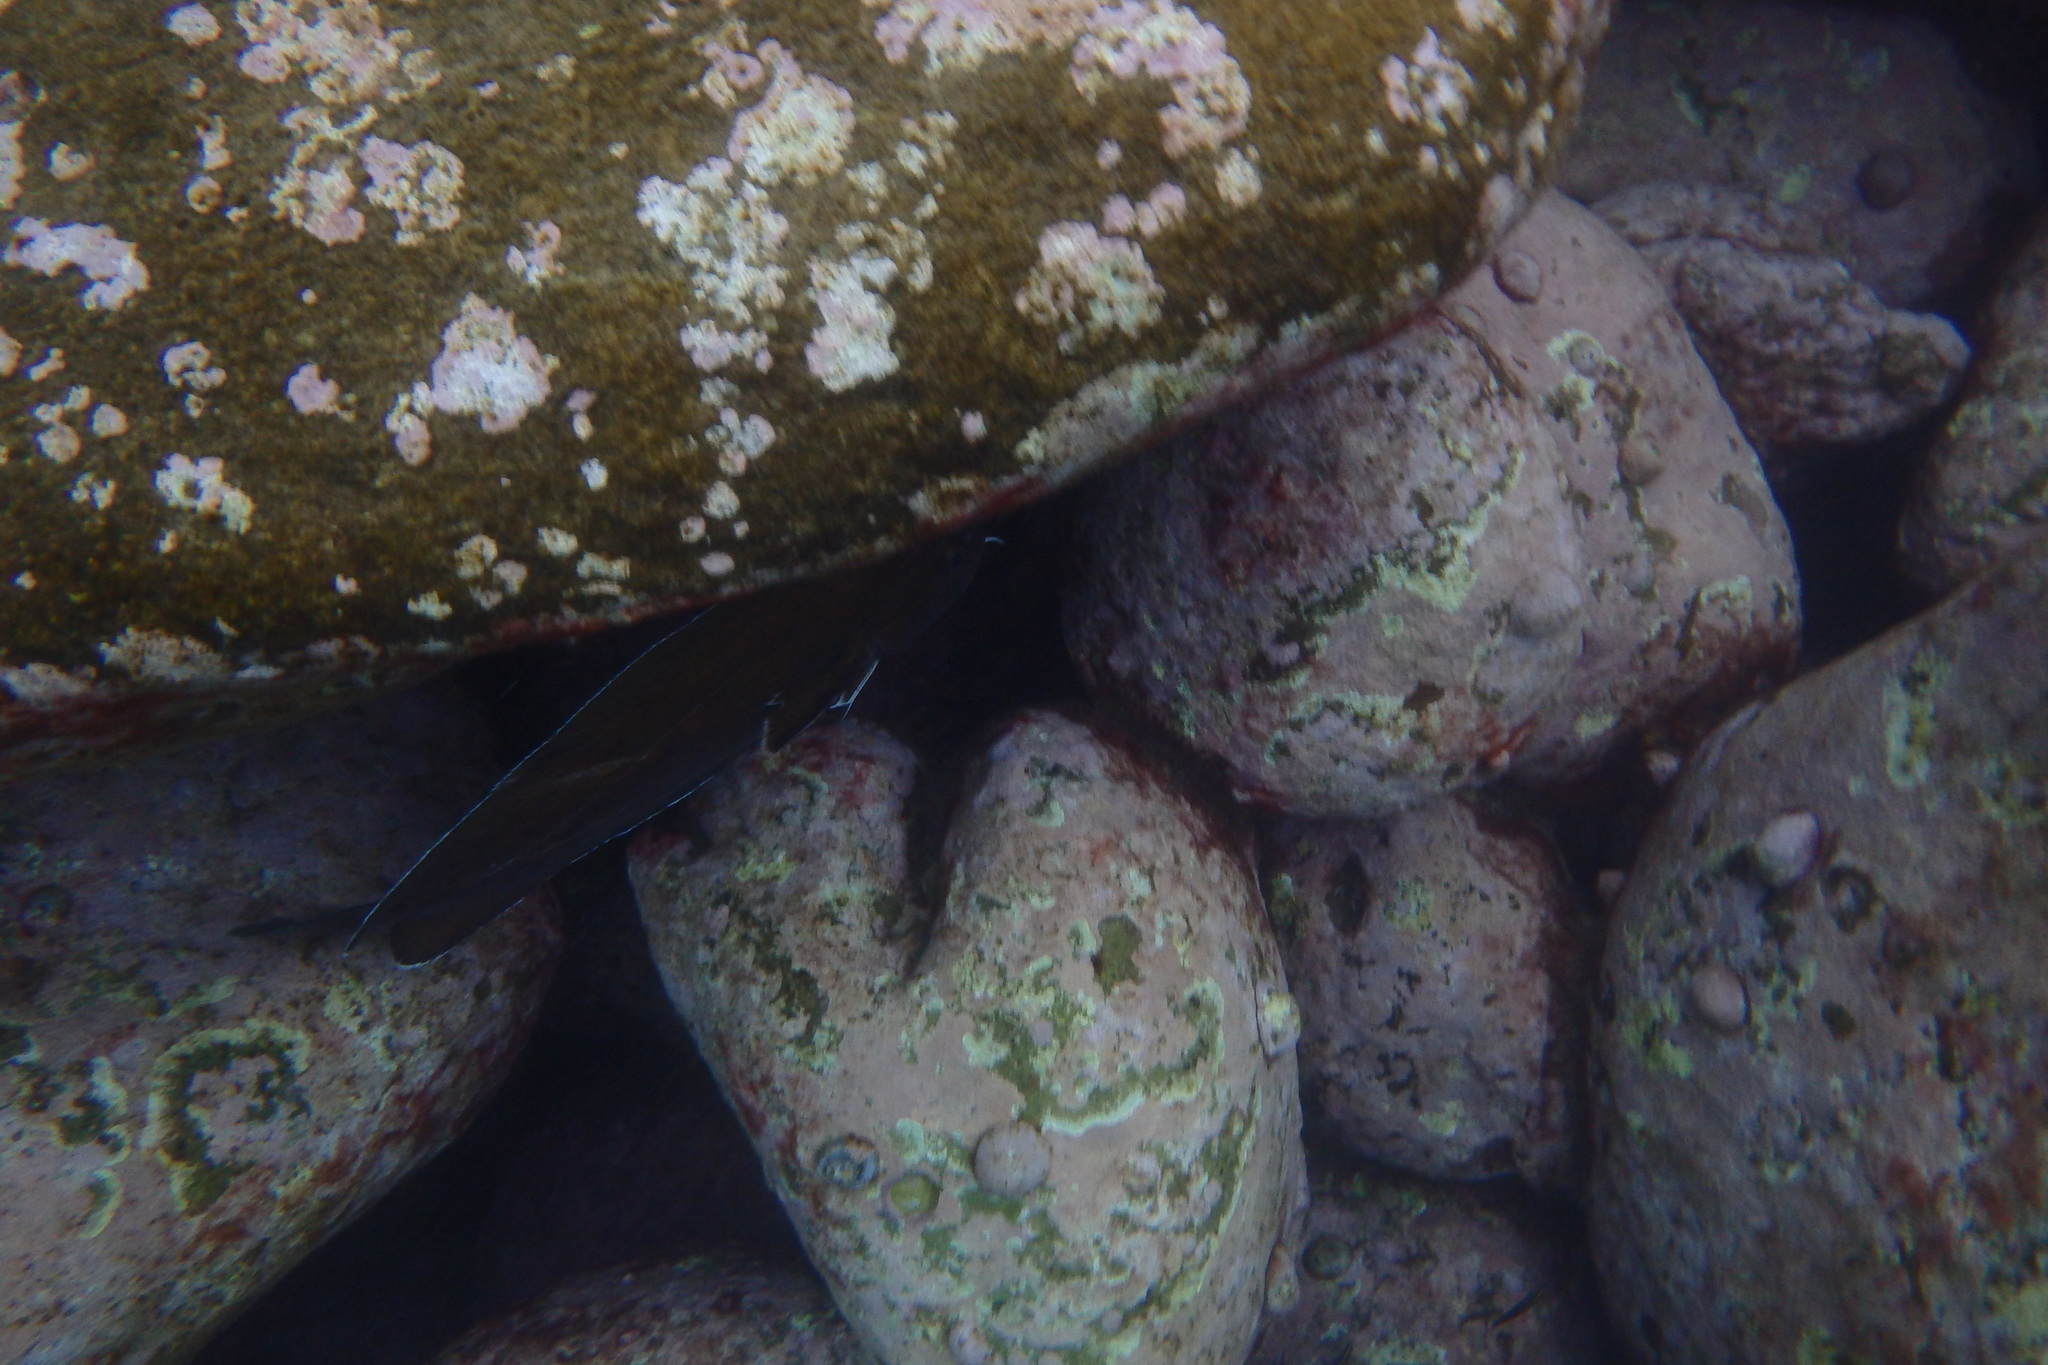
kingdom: Animalia
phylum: Chordata
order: Gadiformes
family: Moridae
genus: Lotella
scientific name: Lotella rhacina
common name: Rock cod
